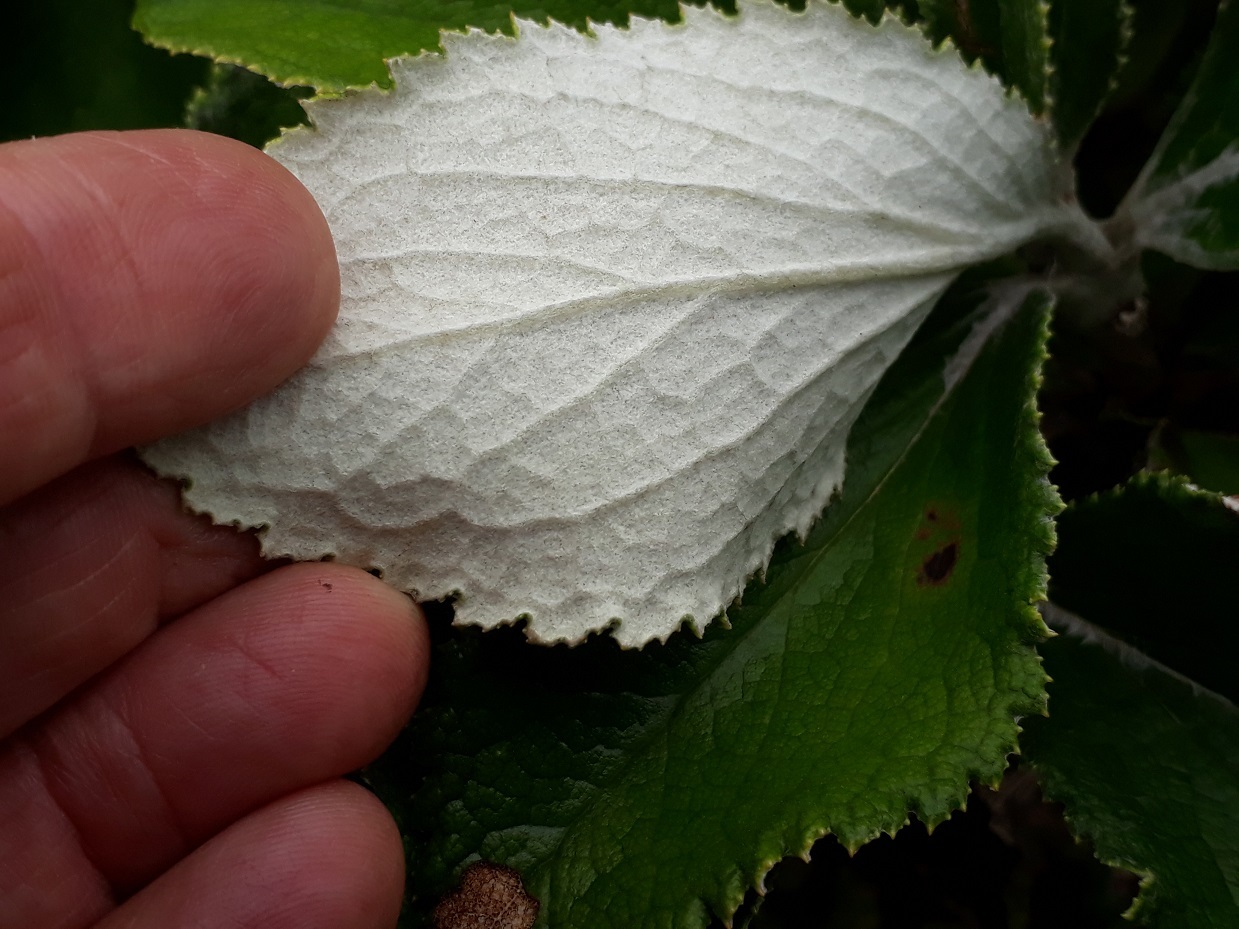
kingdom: Plantae
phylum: Tracheophyta
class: Magnoliopsida
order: Asterales
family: Asteraceae
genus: Macrolearia
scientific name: Macrolearia colensoi
